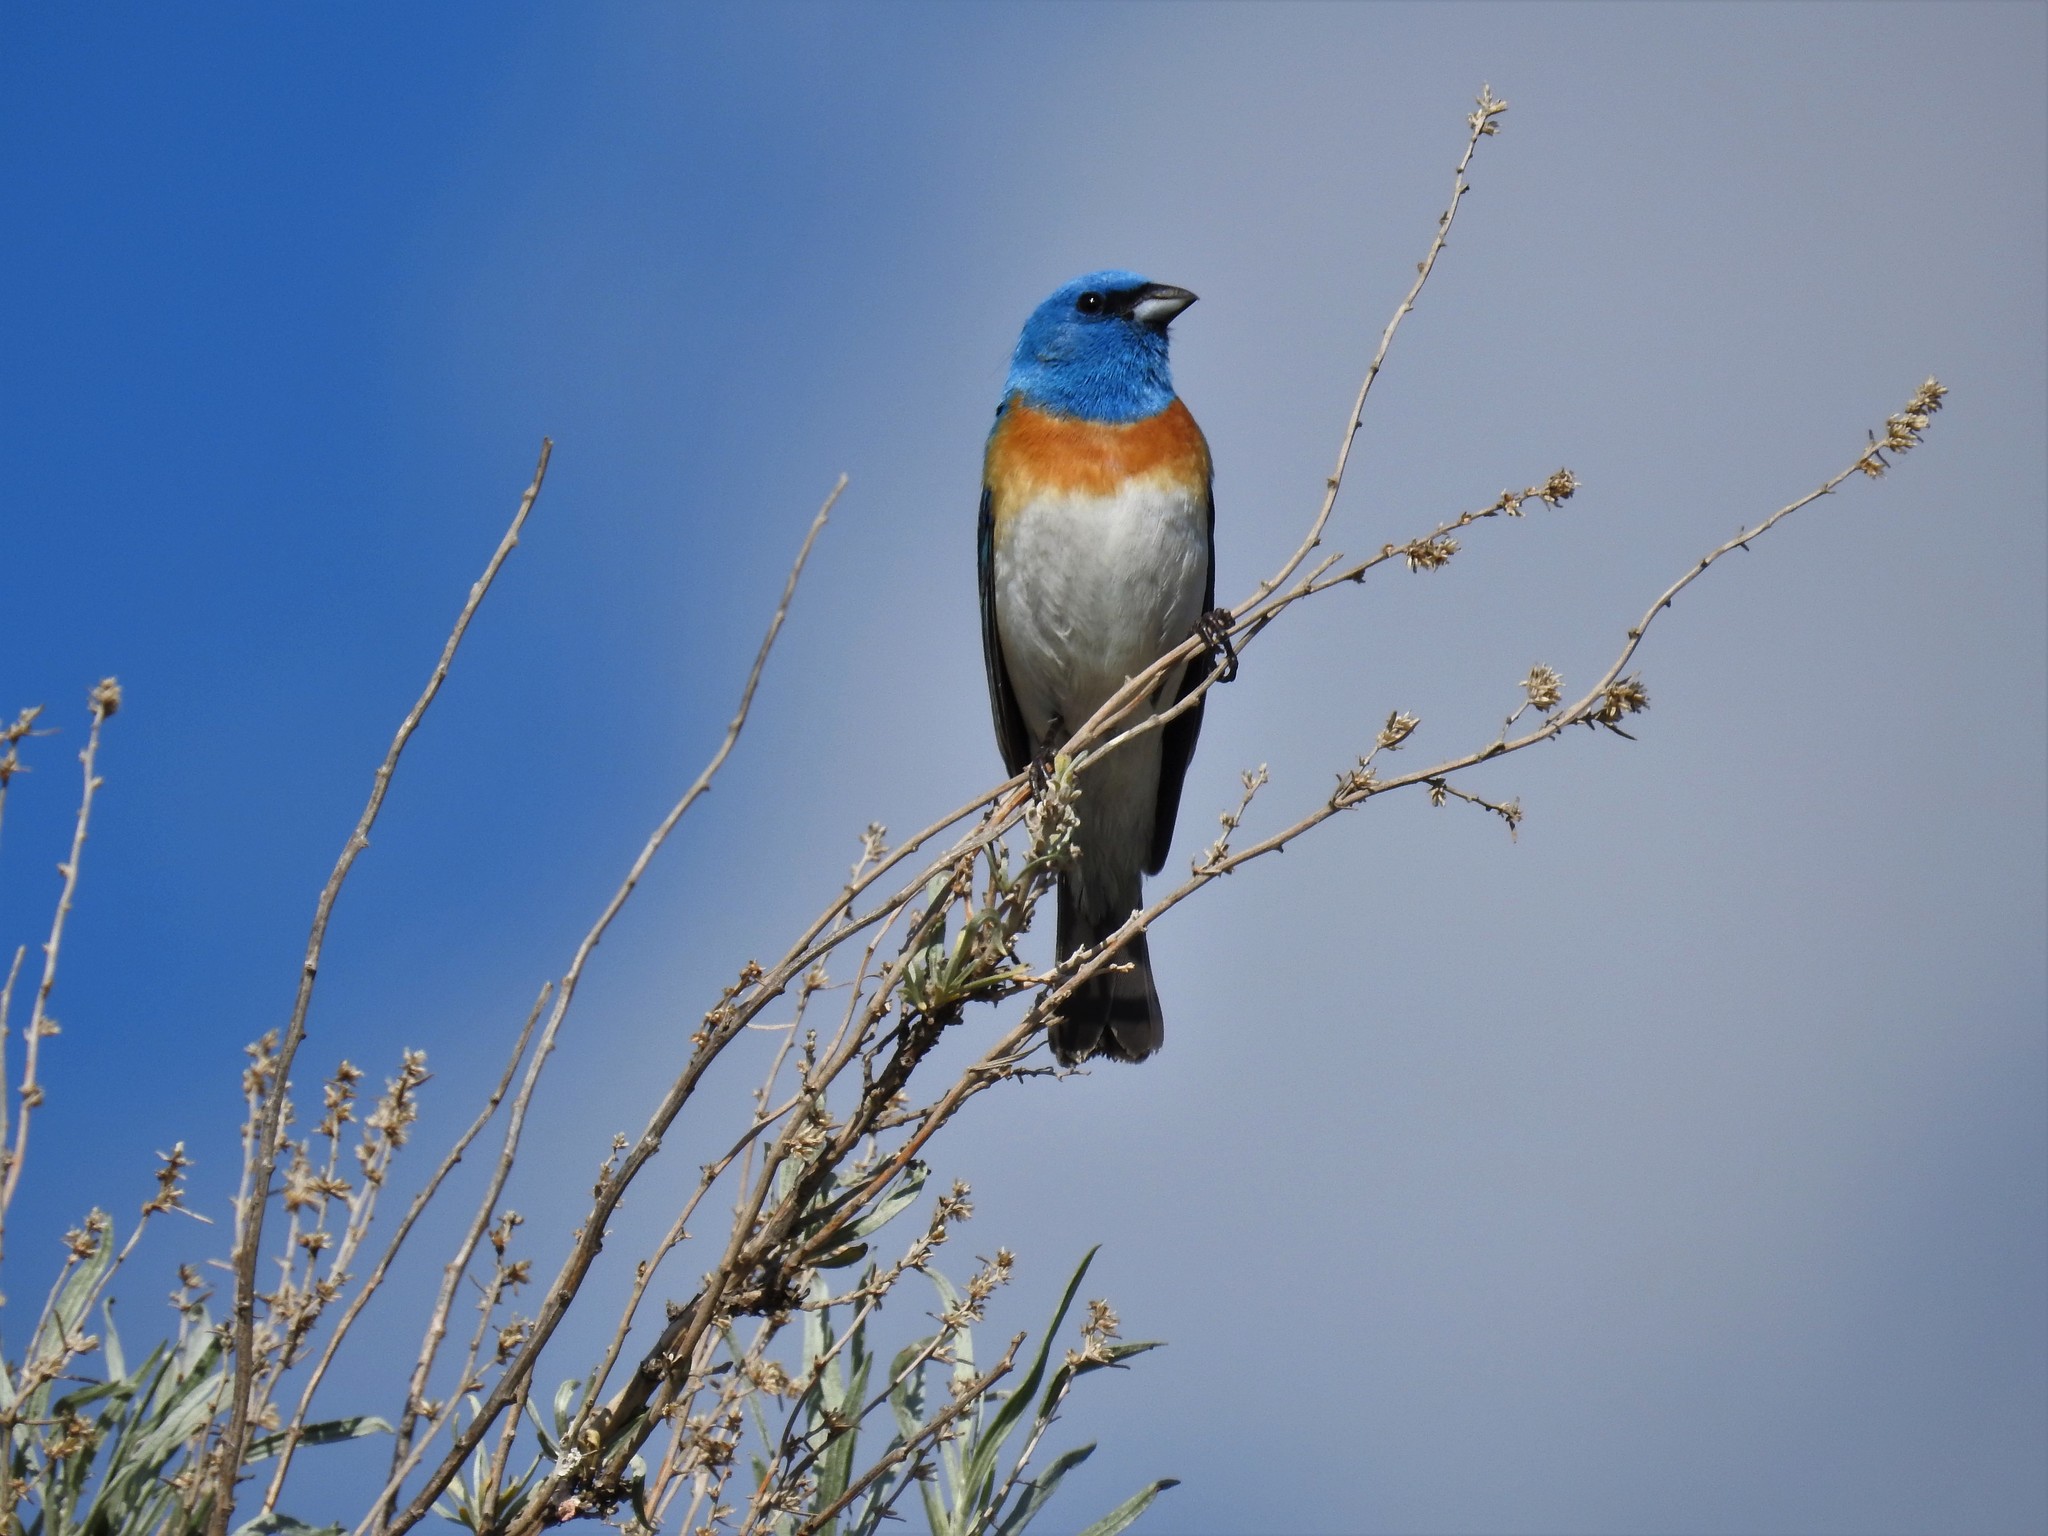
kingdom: Animalia
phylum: Chordata
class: Aves
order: Passeriformes
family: Cardinalidae
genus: Passerina
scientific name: Passerina amoena
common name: Lazuli bunting
